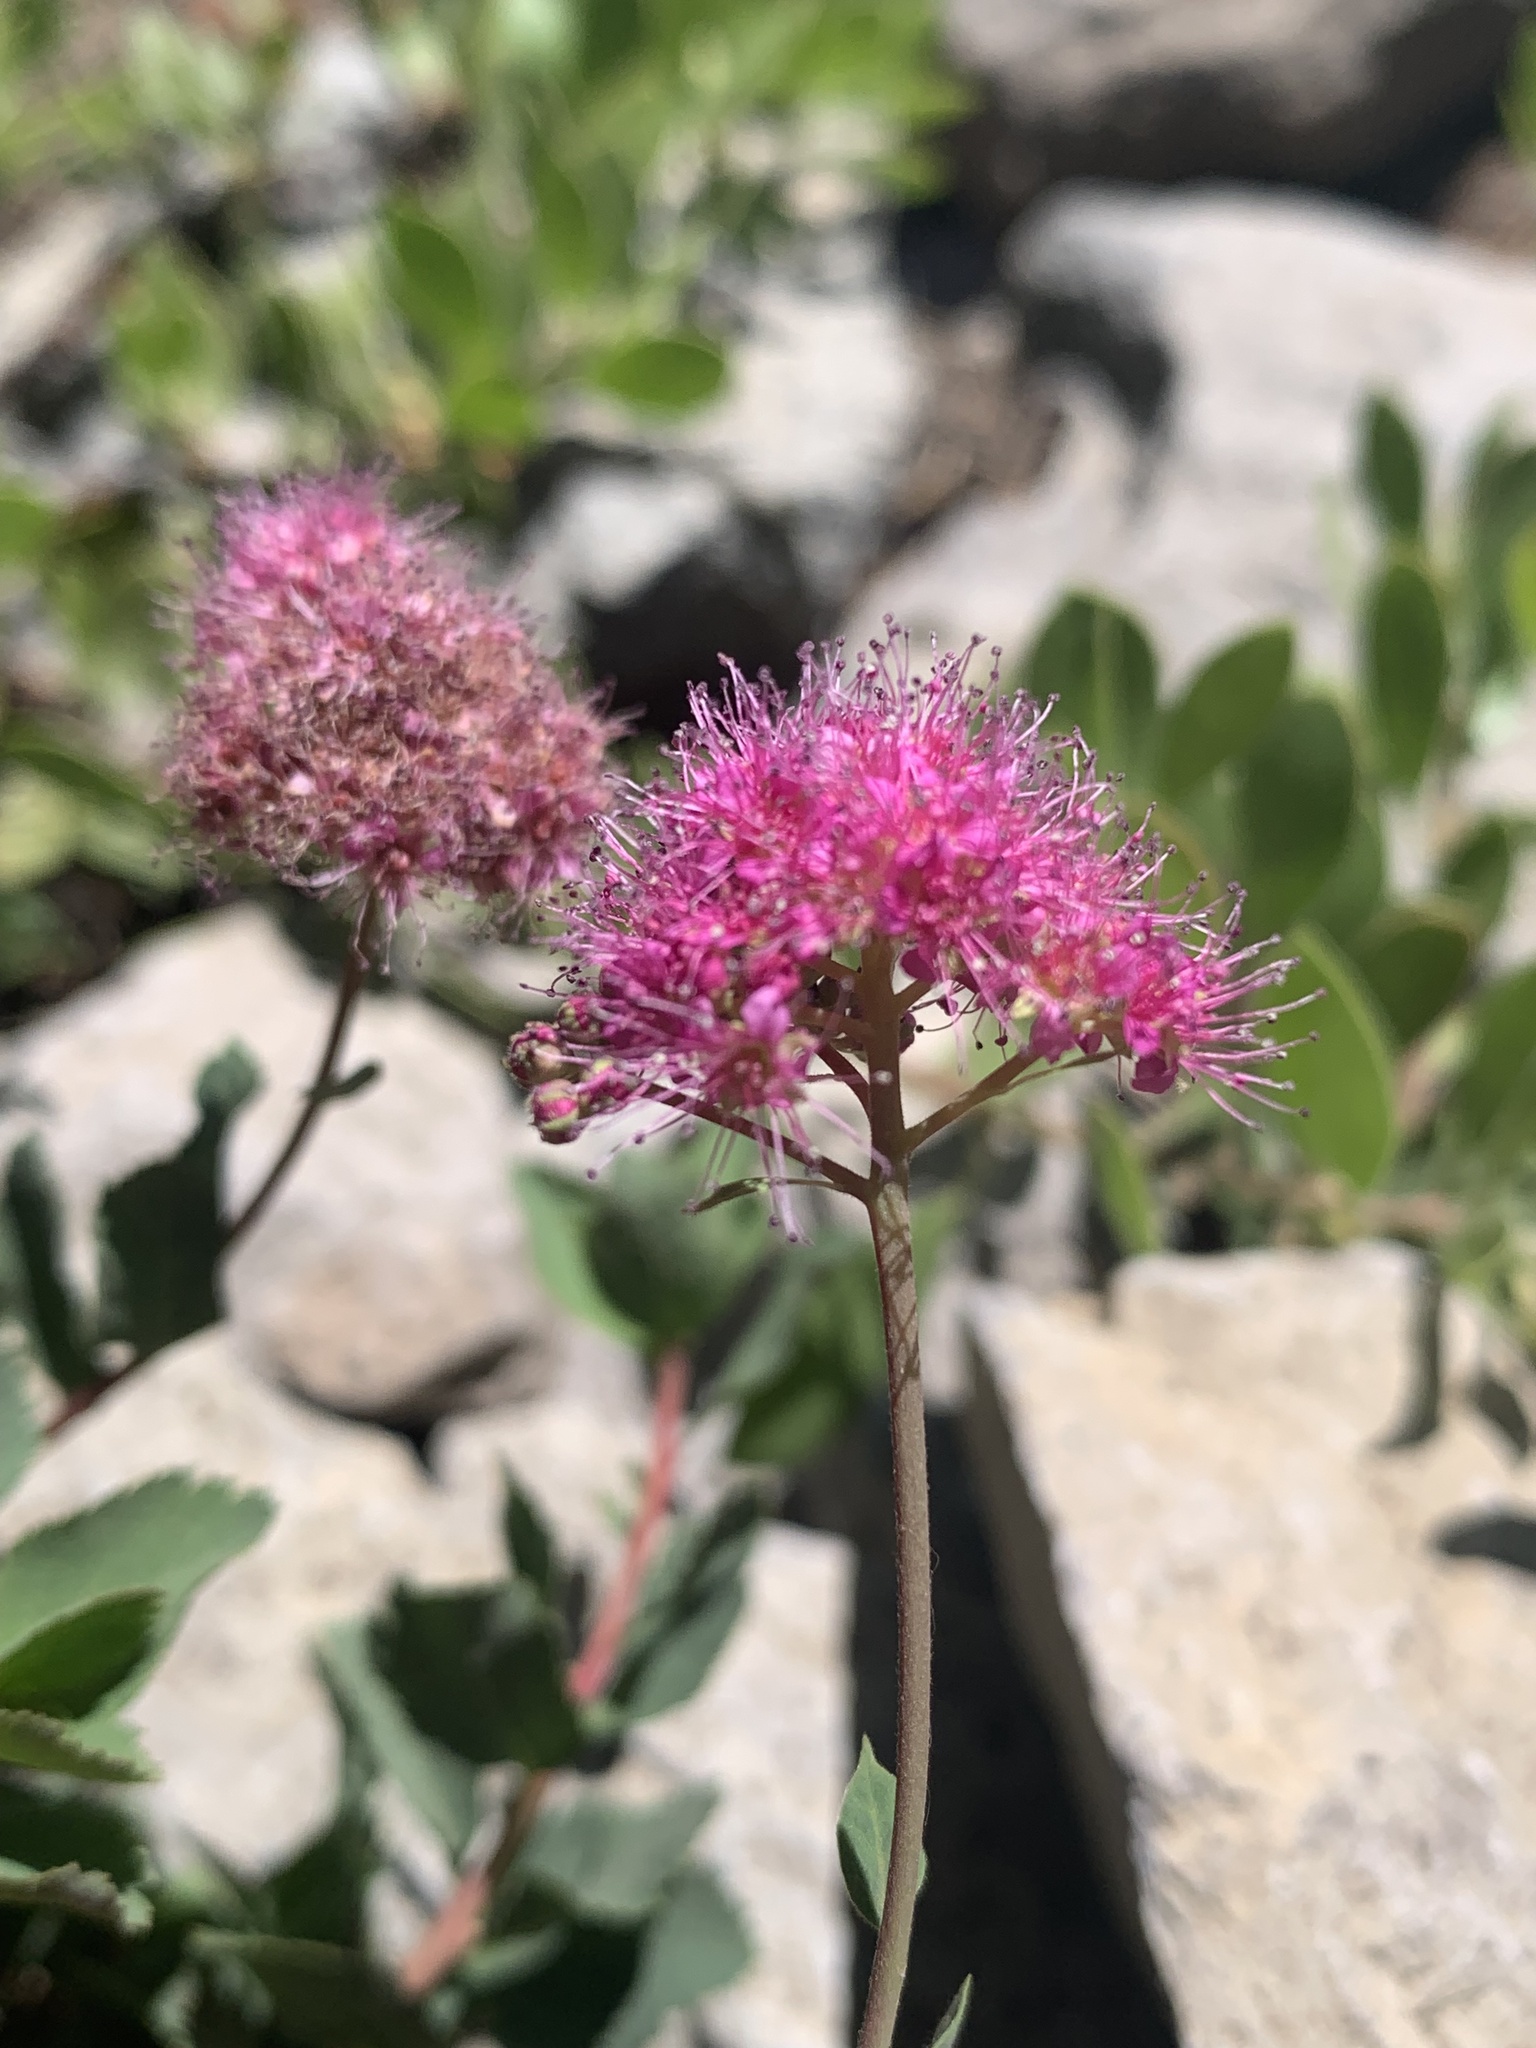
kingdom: Plantae
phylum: Tracheophyta
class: Magnoliopsida
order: Rosales
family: Rosaceae
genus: Spiraea
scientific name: Spiraea splendens
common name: Subalpine meadowsweet
